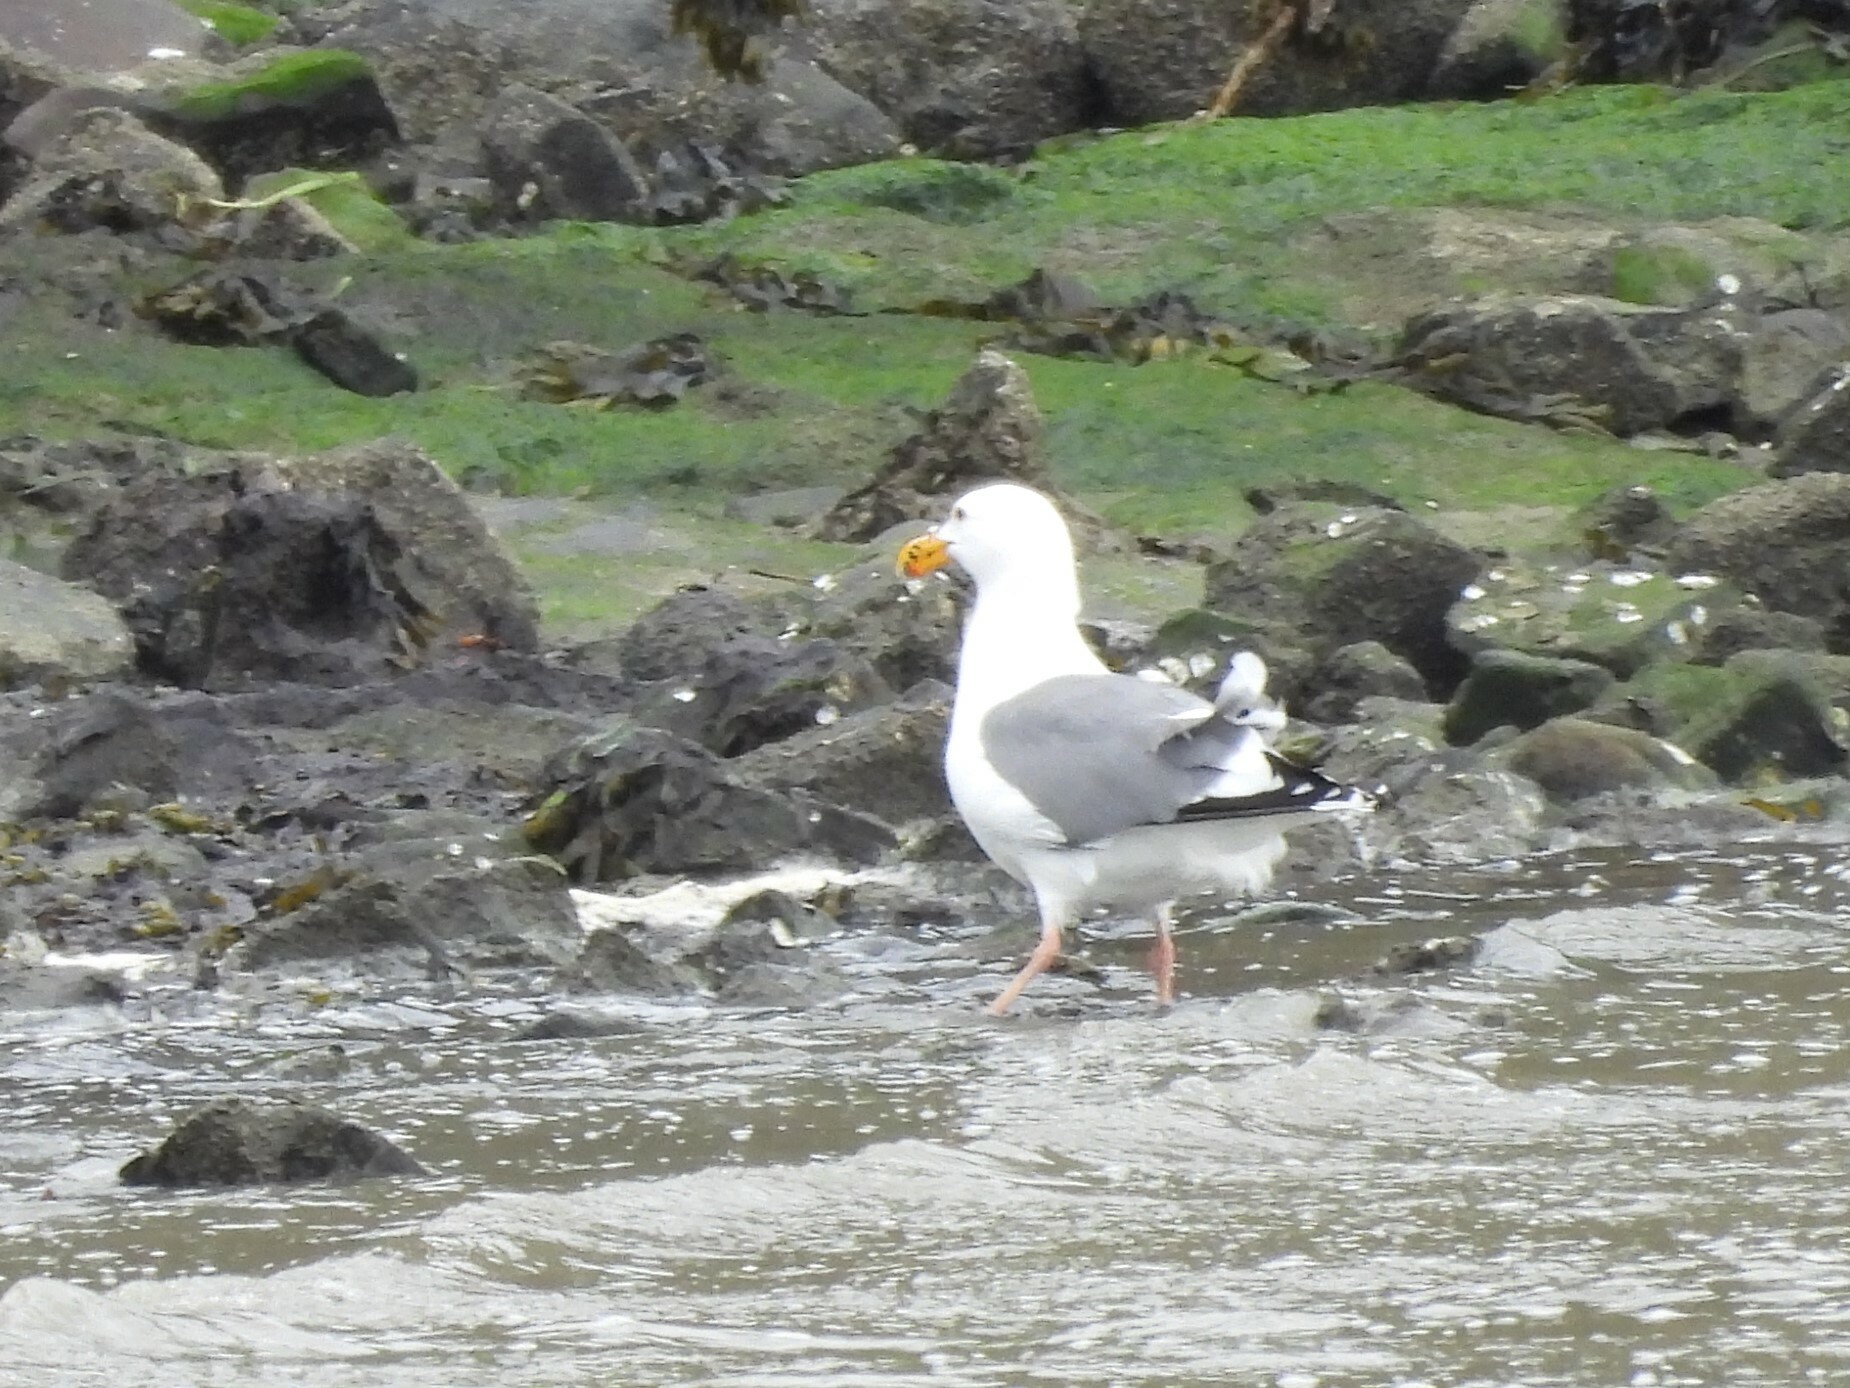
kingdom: Animalia
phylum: Chordata
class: Aves
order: Charadriiformes
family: Laridae
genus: Larus
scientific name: Larus occidentalis
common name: Western gull
